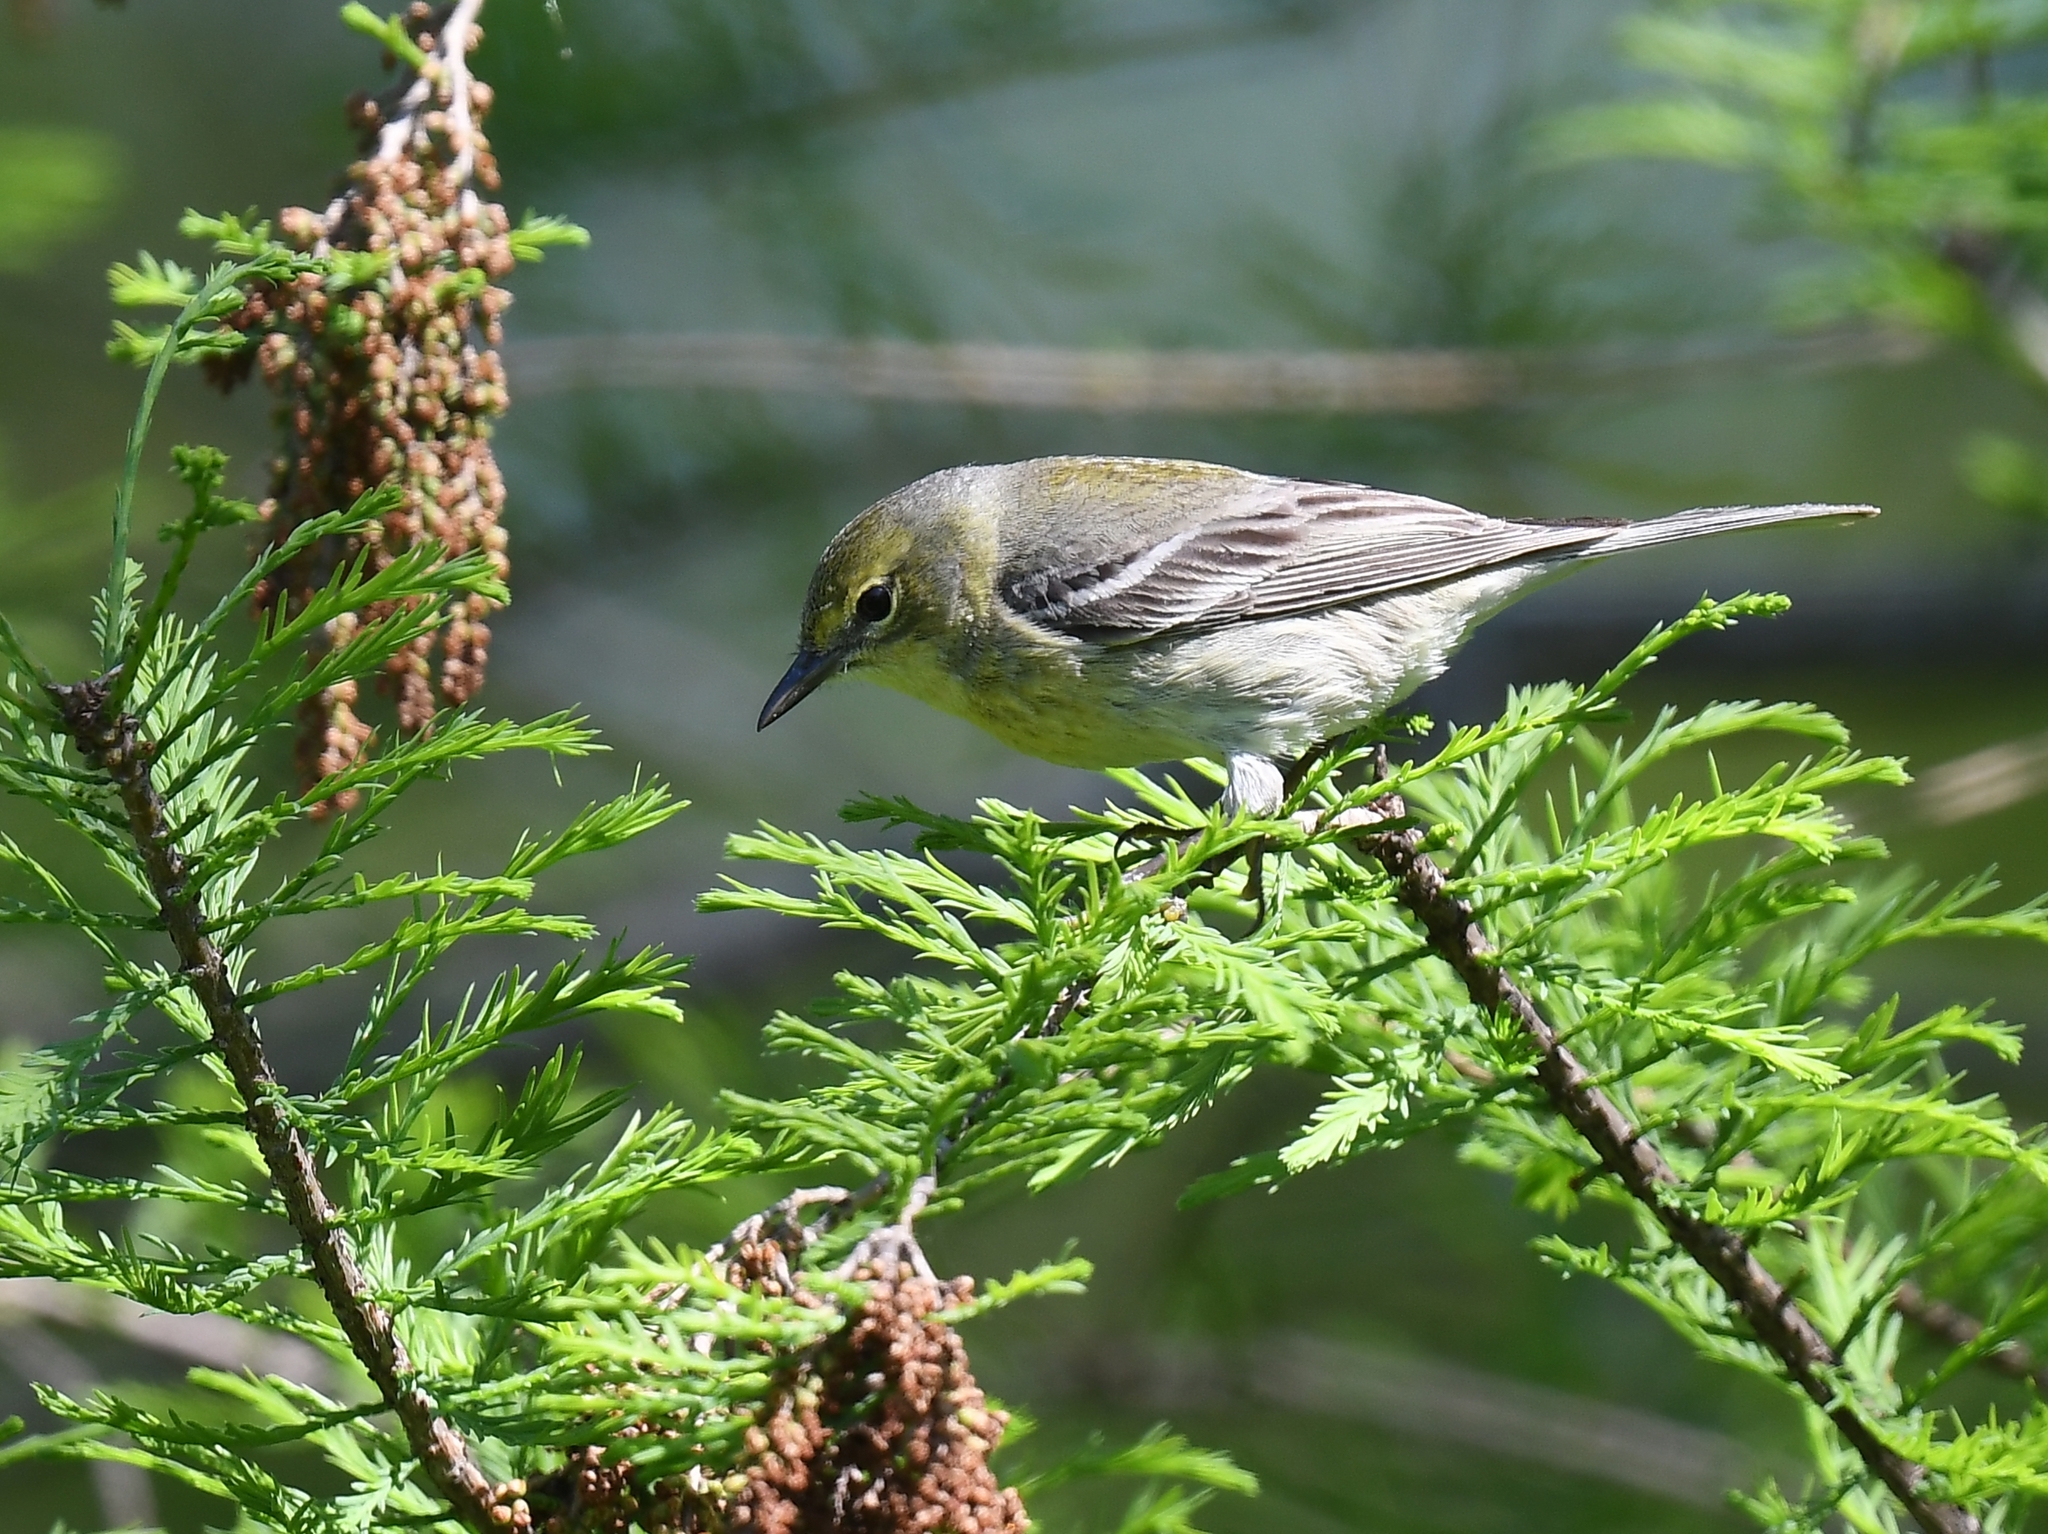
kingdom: Animalia
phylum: Chordata
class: Aves
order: Passeriformes
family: Parulidae
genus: Setophaga
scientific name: Setophaga pinus
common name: Pine warbler
